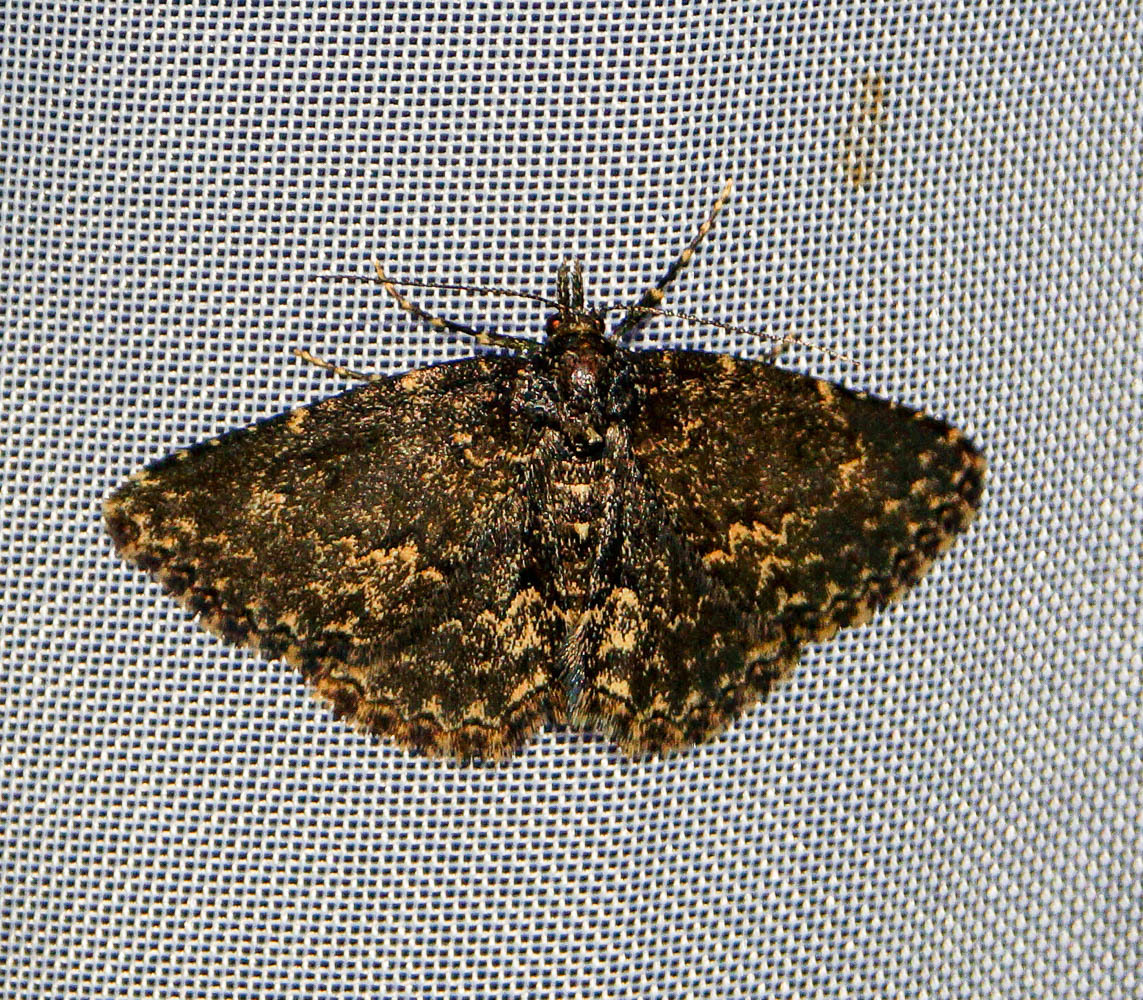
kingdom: Animalia
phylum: Arthropoda
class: Insecta
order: Lepidoptera
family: Erebidae
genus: Parascotia
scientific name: Parascotia fuliginaria
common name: Waved black
